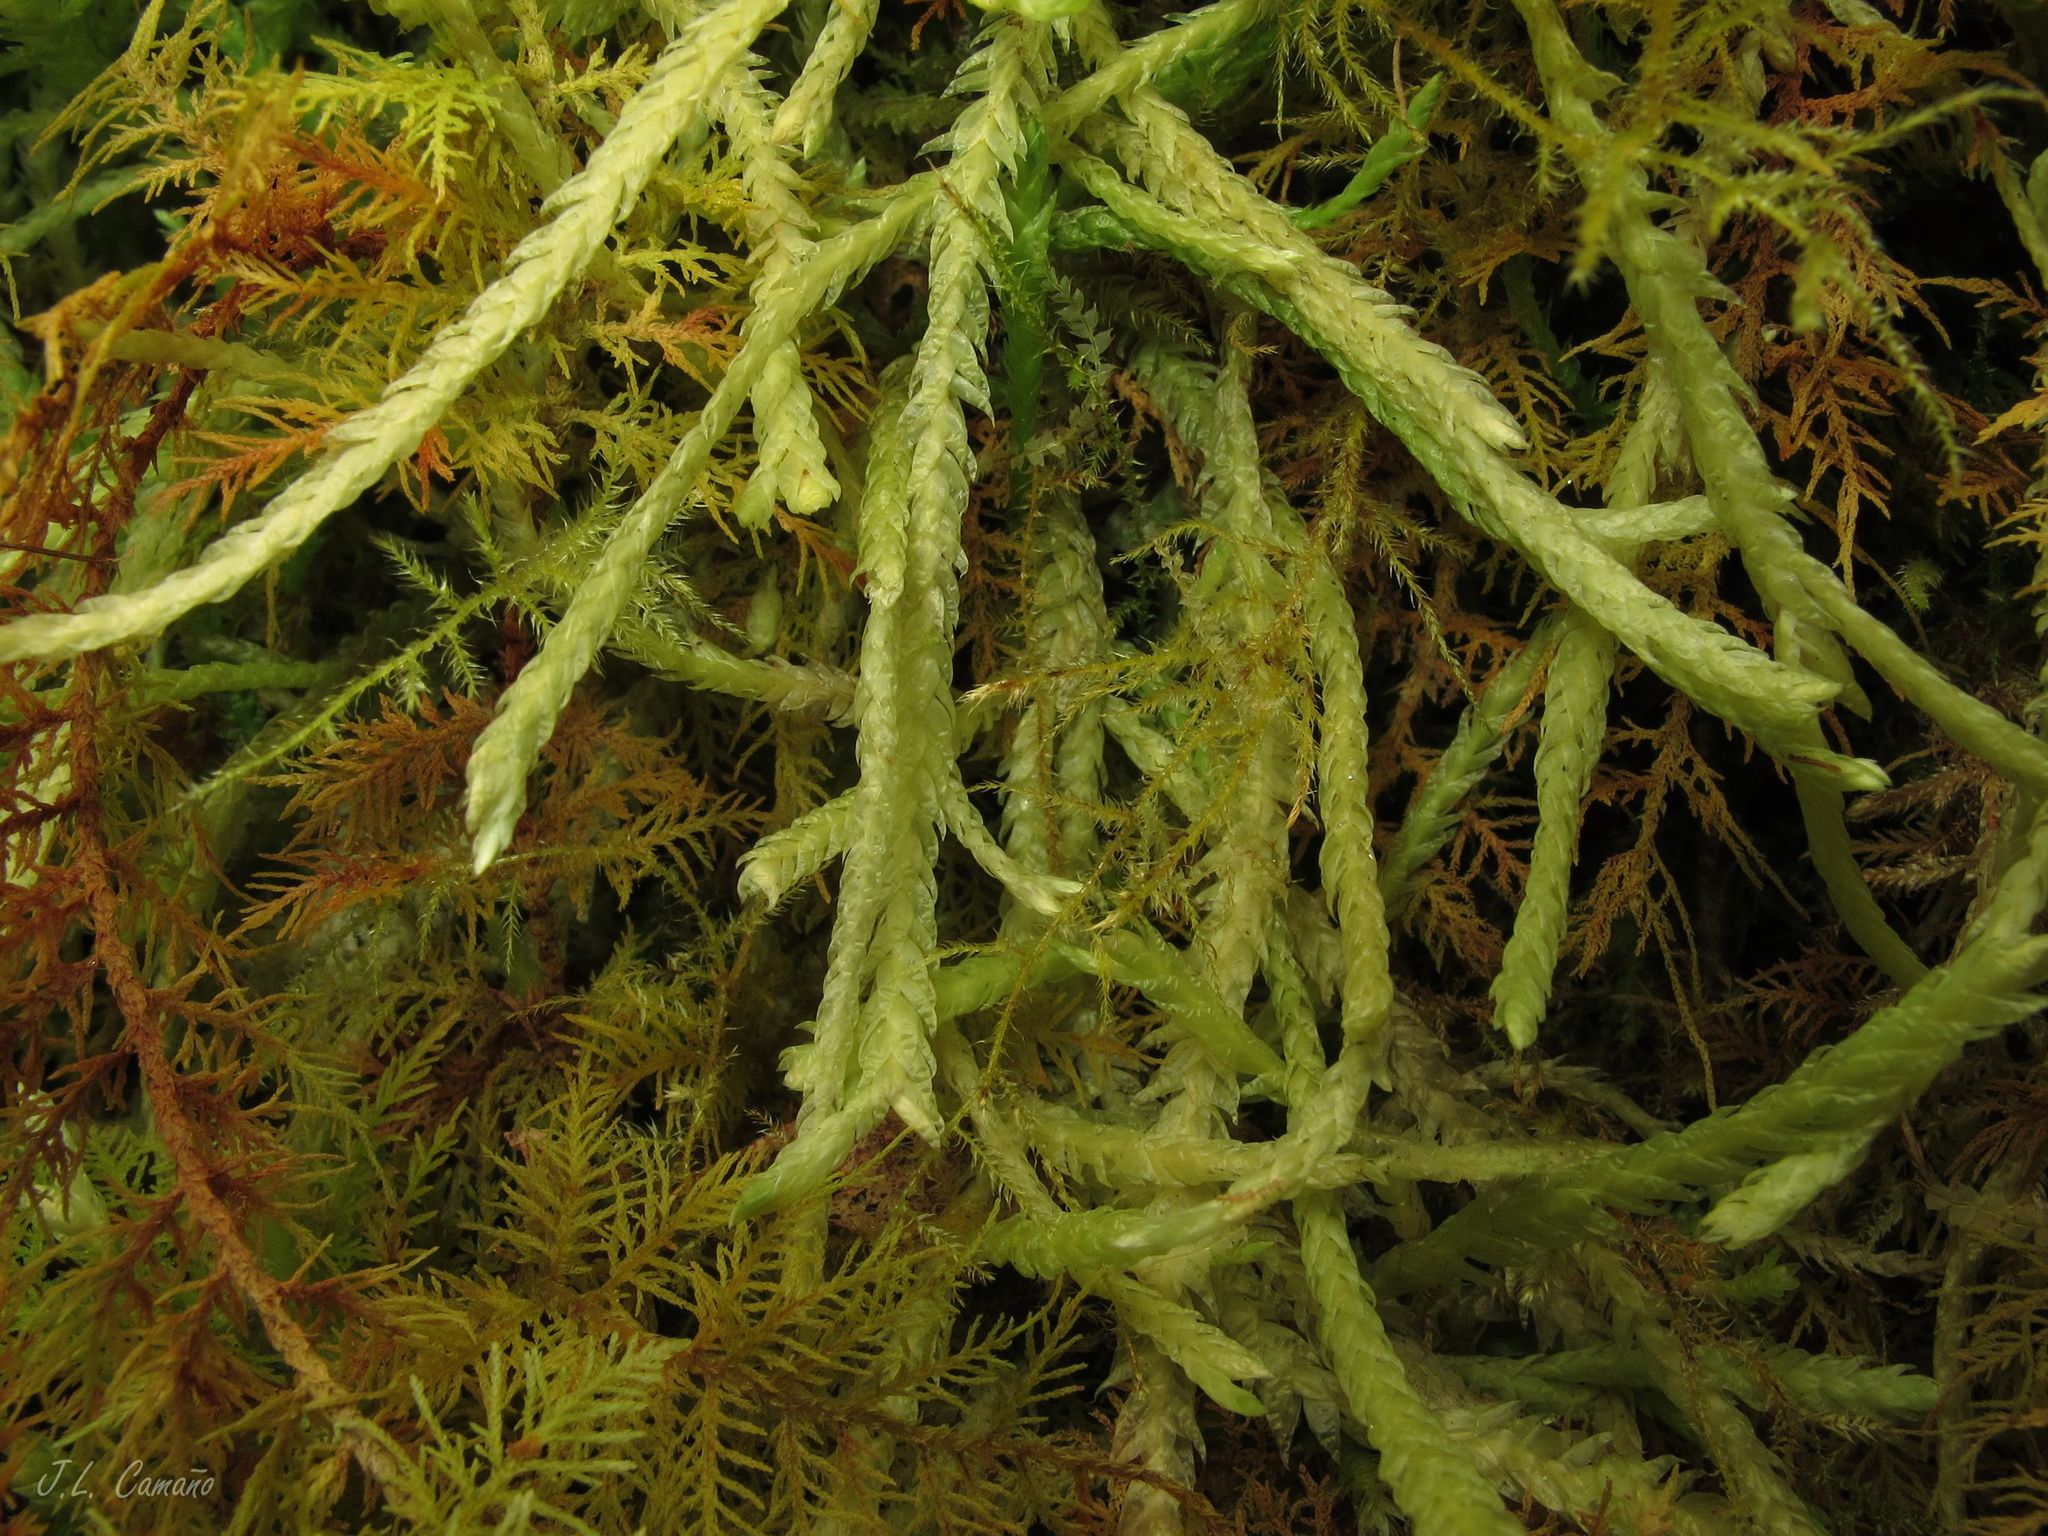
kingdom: Plantae
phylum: Bryophyta
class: Bryopsida
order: Hypnales
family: Plagiotheciaceae
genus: Plagiothecium
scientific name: Plagiothecium undulatum
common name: Waved silk-moss
